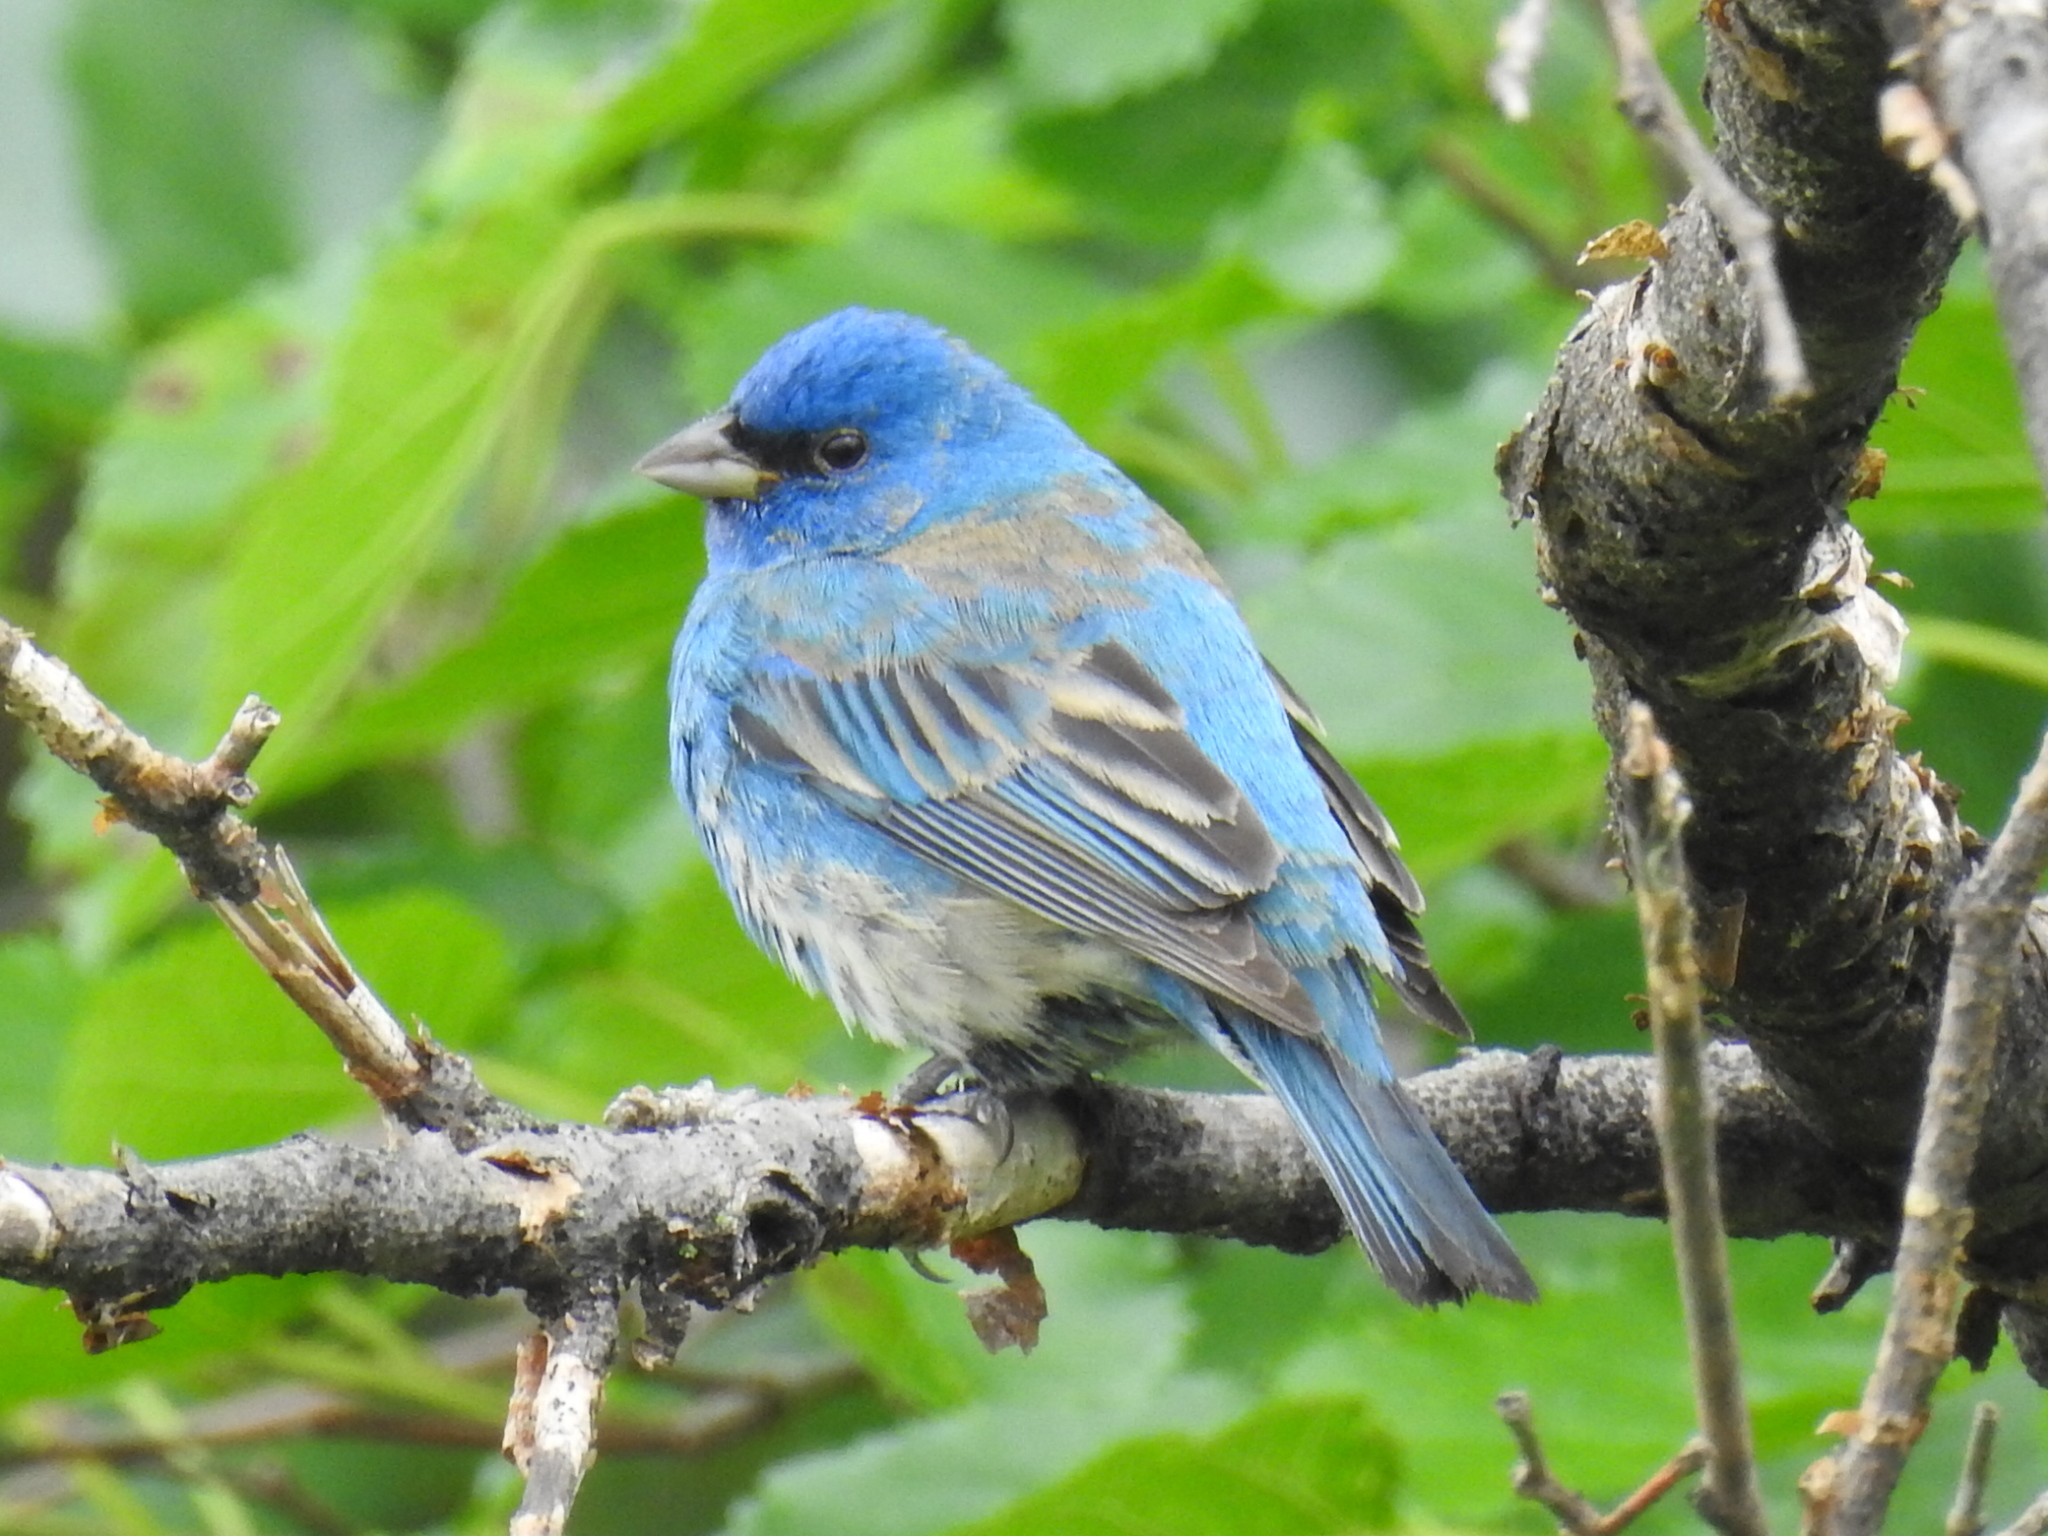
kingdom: Animalia
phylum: Chordata
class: Aves
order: Passeriformes
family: Cardinalidae
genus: Passerina
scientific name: Passerina cyanea
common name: Indigo bunting
